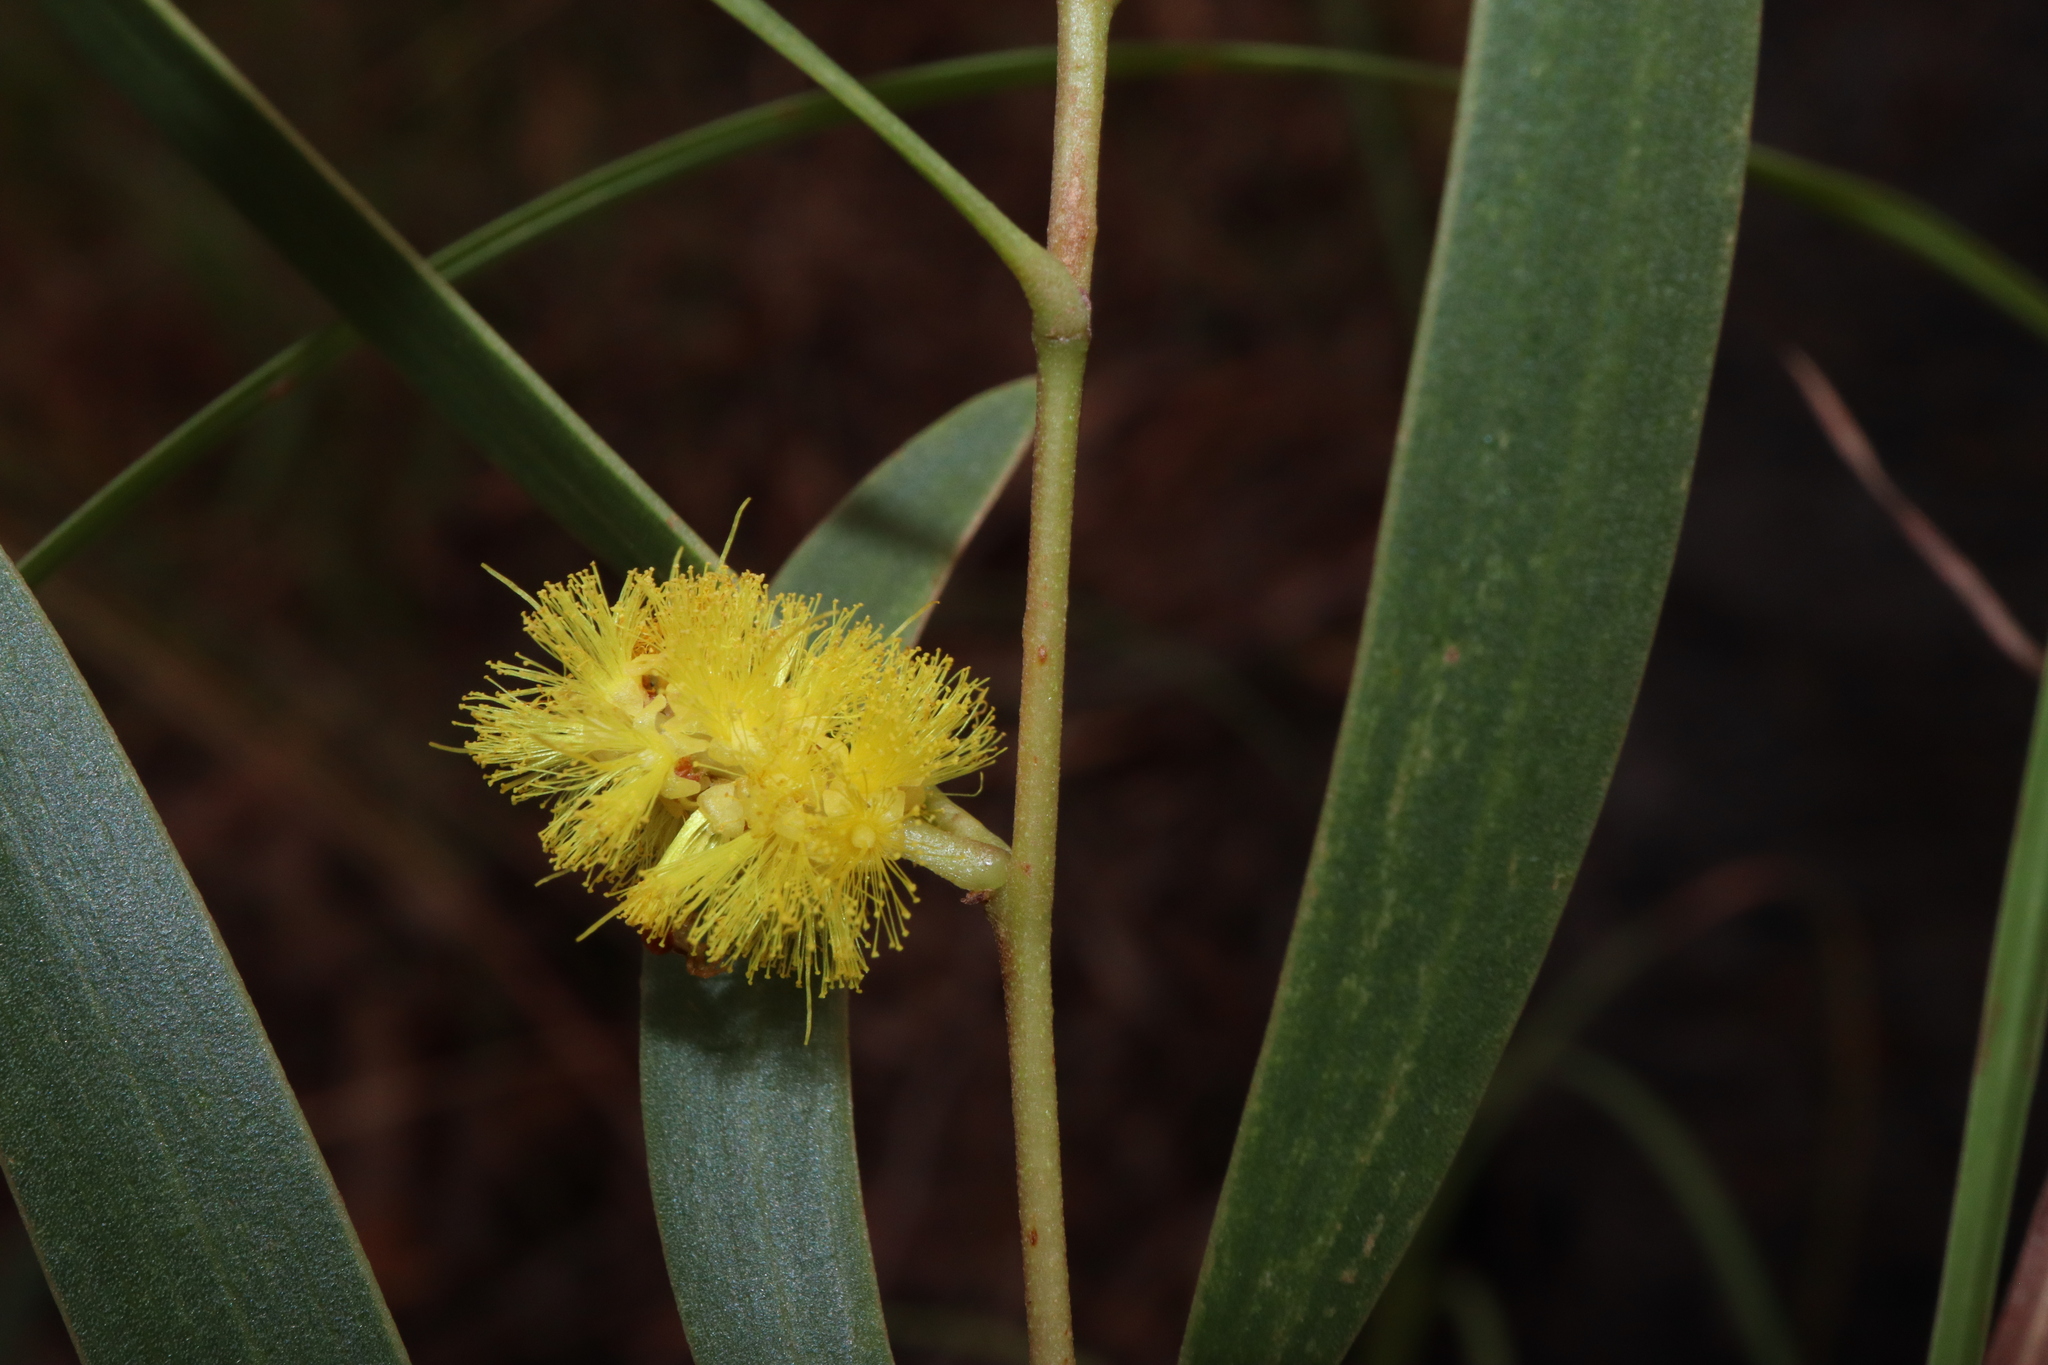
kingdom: Plantae
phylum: Tracheophyta
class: Magnoliopsida
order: Fabales
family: Fabaceae
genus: Acacia
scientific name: Acacia whitei
